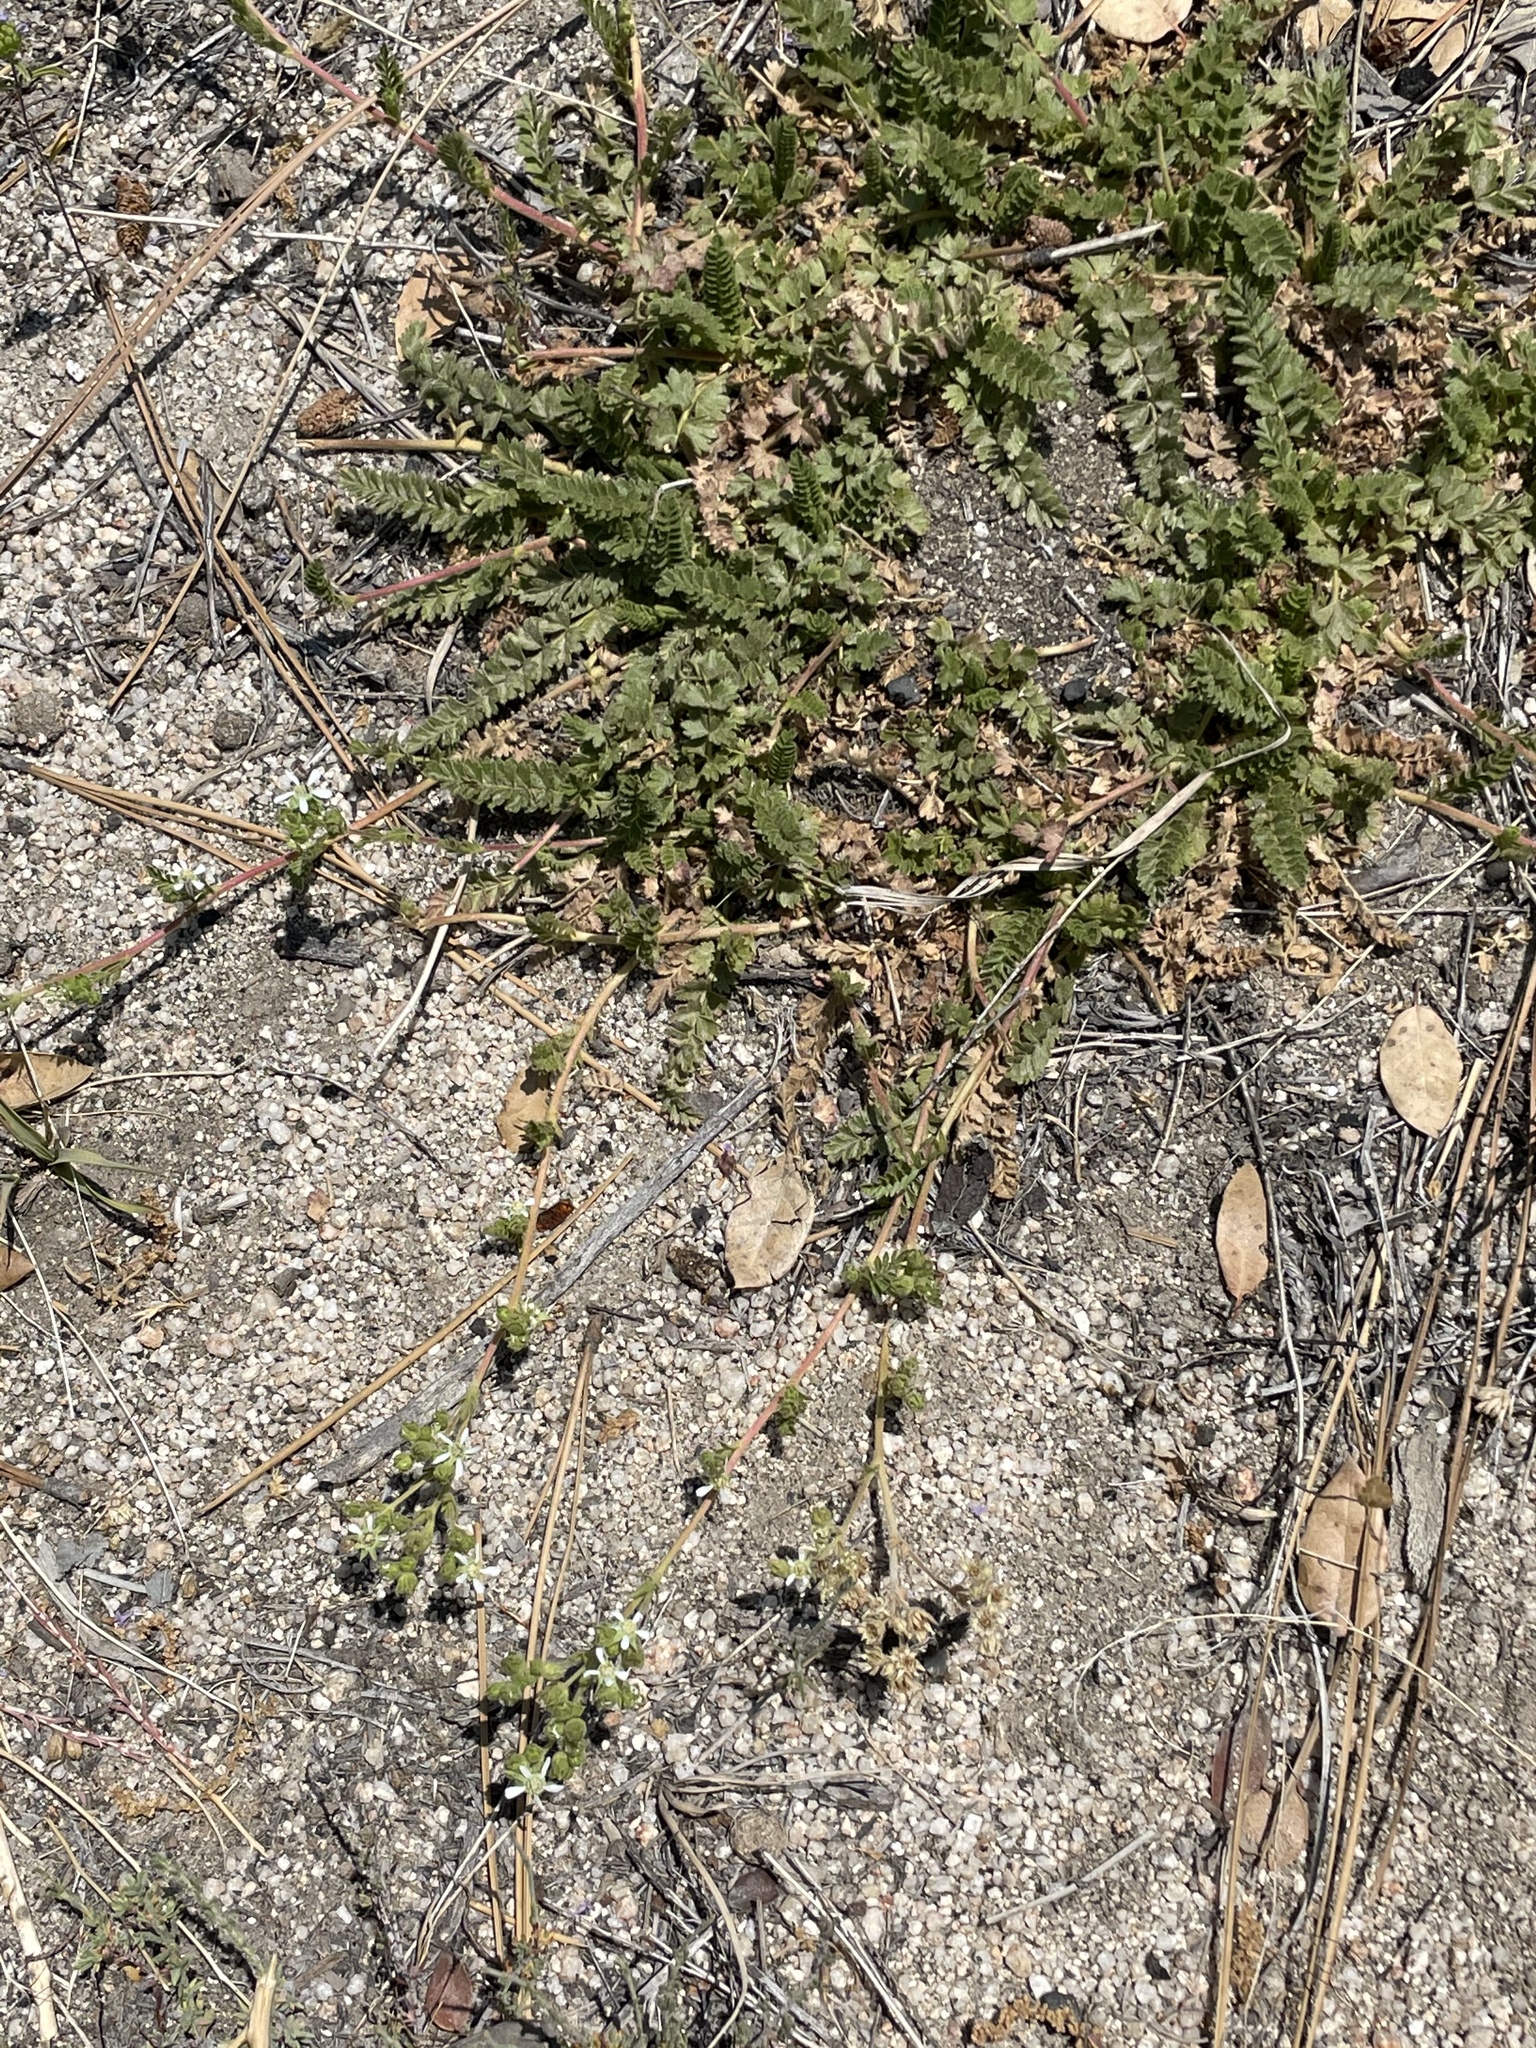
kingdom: Plantae
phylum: Tracheophyta
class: Magnoliopsida
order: Rosales
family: Rosaceae
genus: Potentilla
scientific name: Potentilla clevelandii
